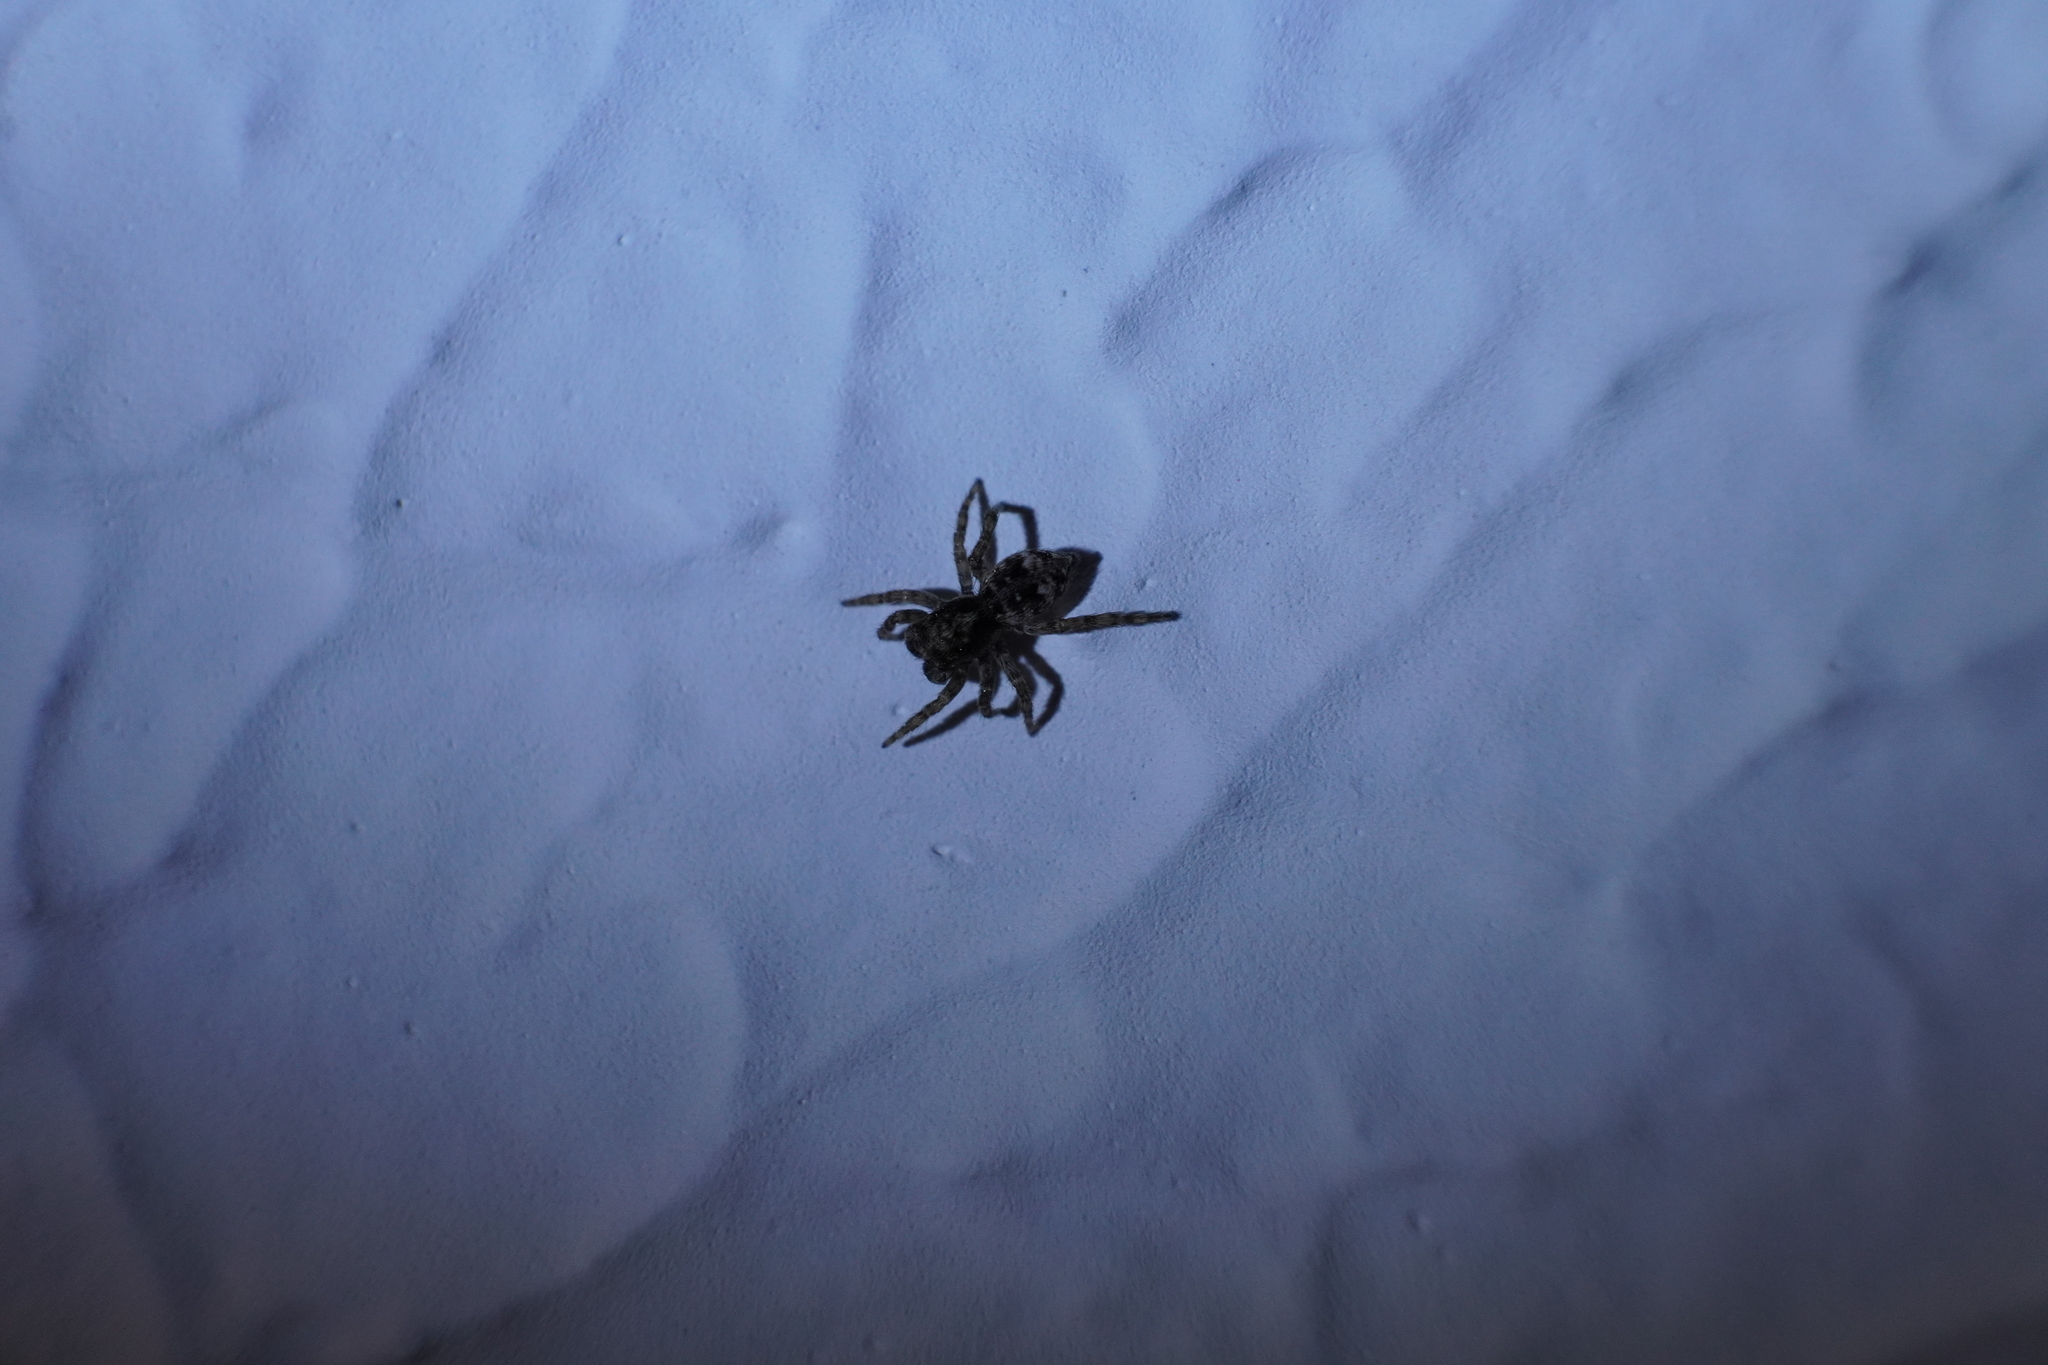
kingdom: Animalia
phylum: Arthropoda
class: Arachnida
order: Araneae
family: Salticidae
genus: Attulus
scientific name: Attulus fasciger
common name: Asiatic wall jumping spider
